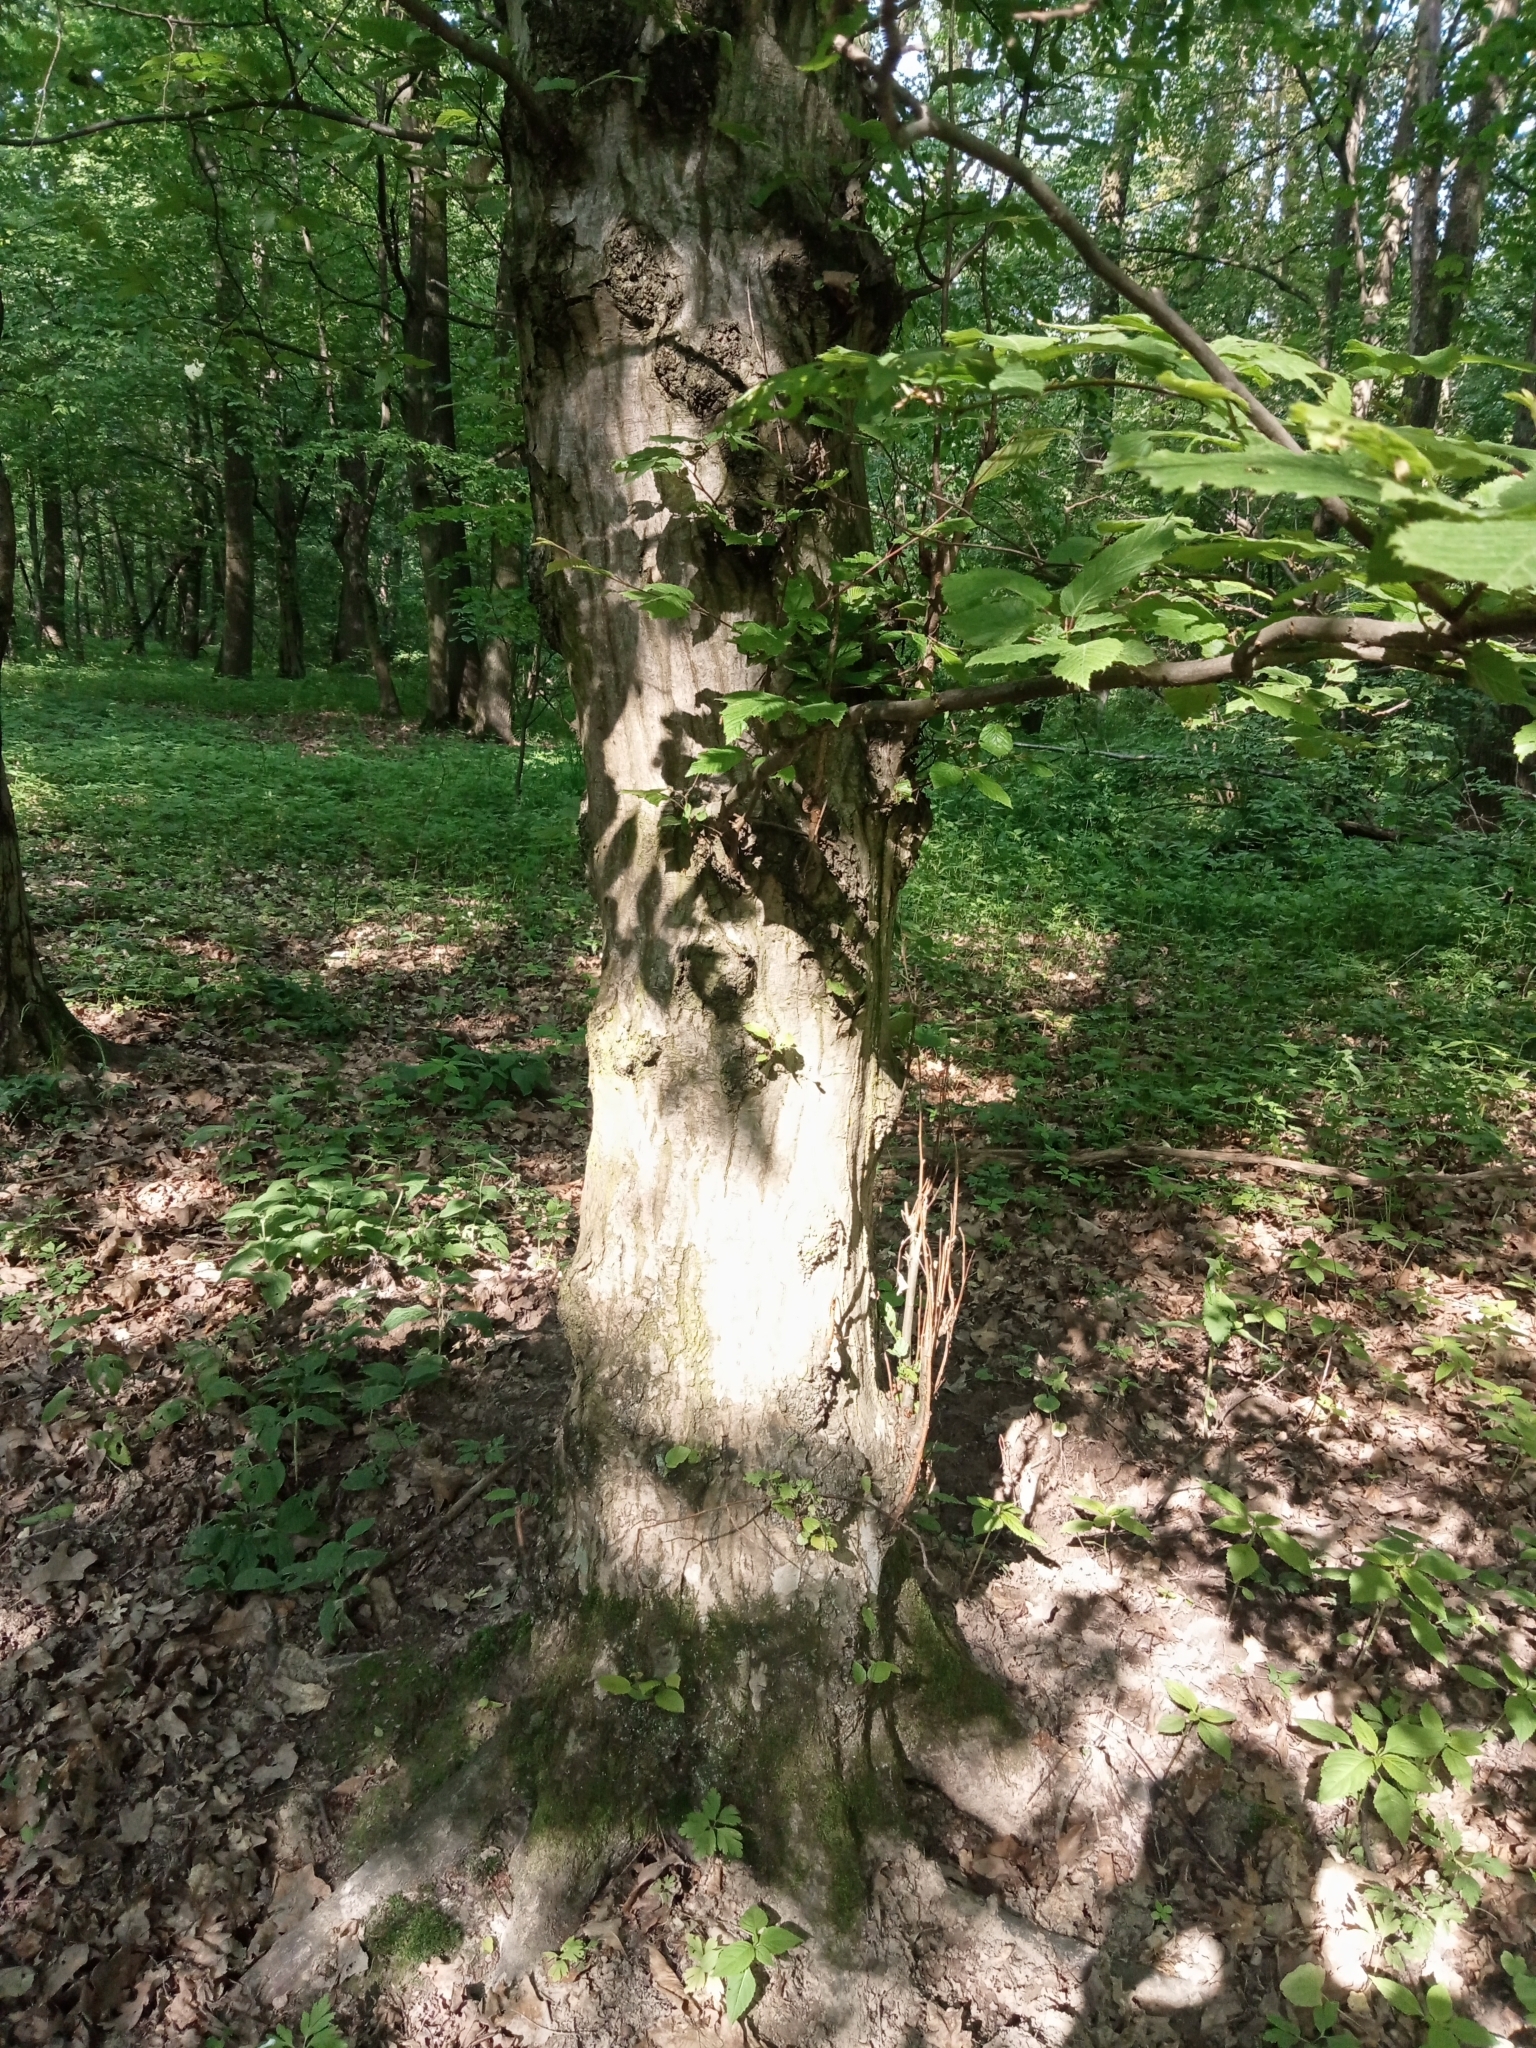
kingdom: Plantae
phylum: Tracheophyta
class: Magnoliopsida
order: Fagales
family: Betulaceae
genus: Carpinus
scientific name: Carpinus betulus
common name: Hornbeam
